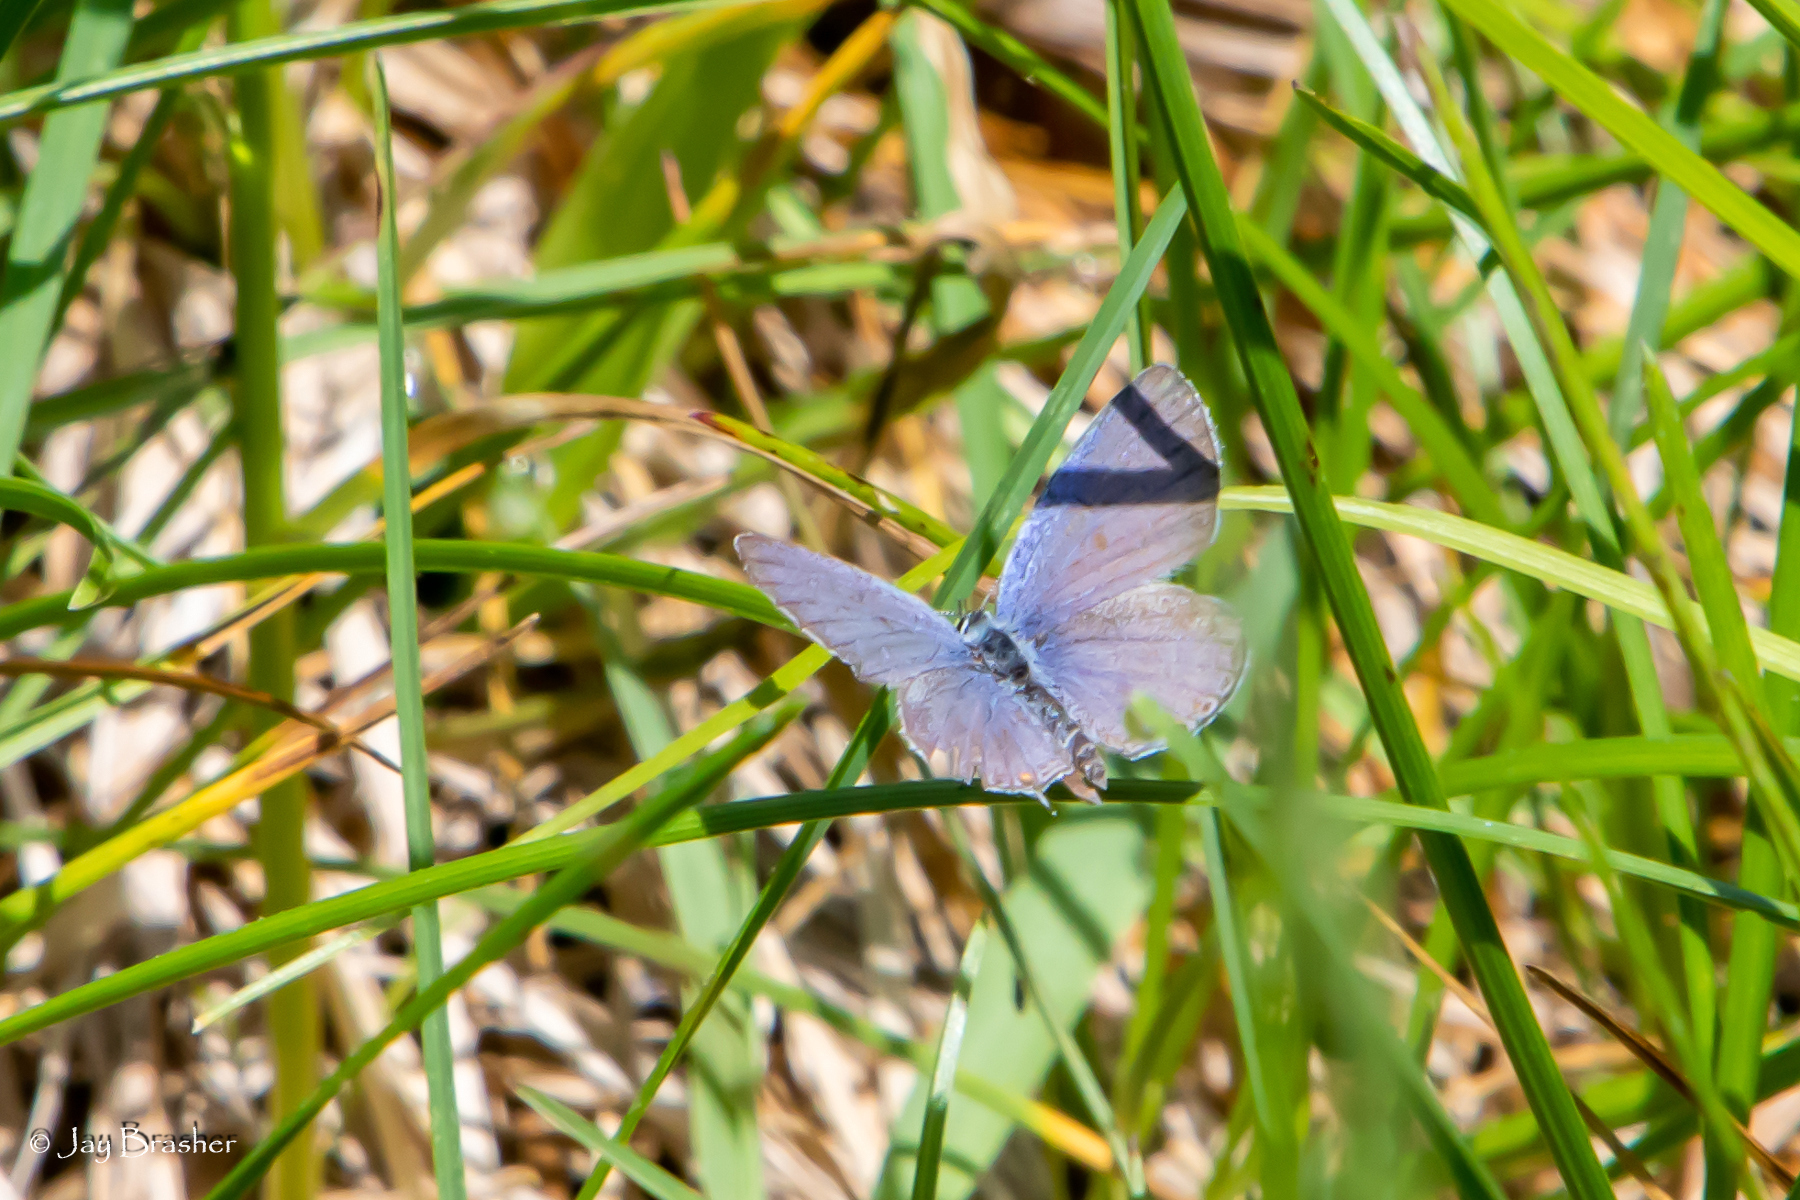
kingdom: Animalia
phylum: Arthropoda
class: Insecta
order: Lepidoptera
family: Lycaenidae
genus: Elkalyce
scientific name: Elkalyce comyntas
